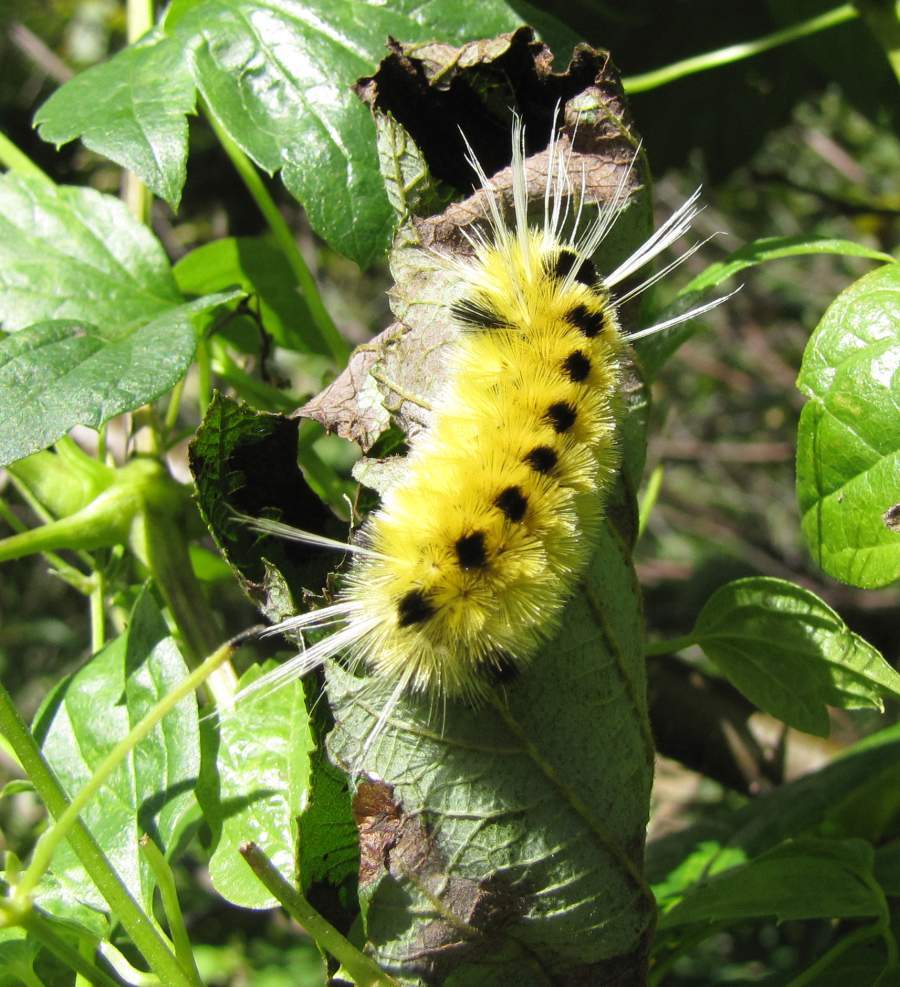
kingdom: Animalia
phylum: Arthropoda
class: Insecta
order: Lepidoptera
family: Erebidae
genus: Lophocampa
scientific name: Lophocampa maculata
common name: Spotted tussock moth
